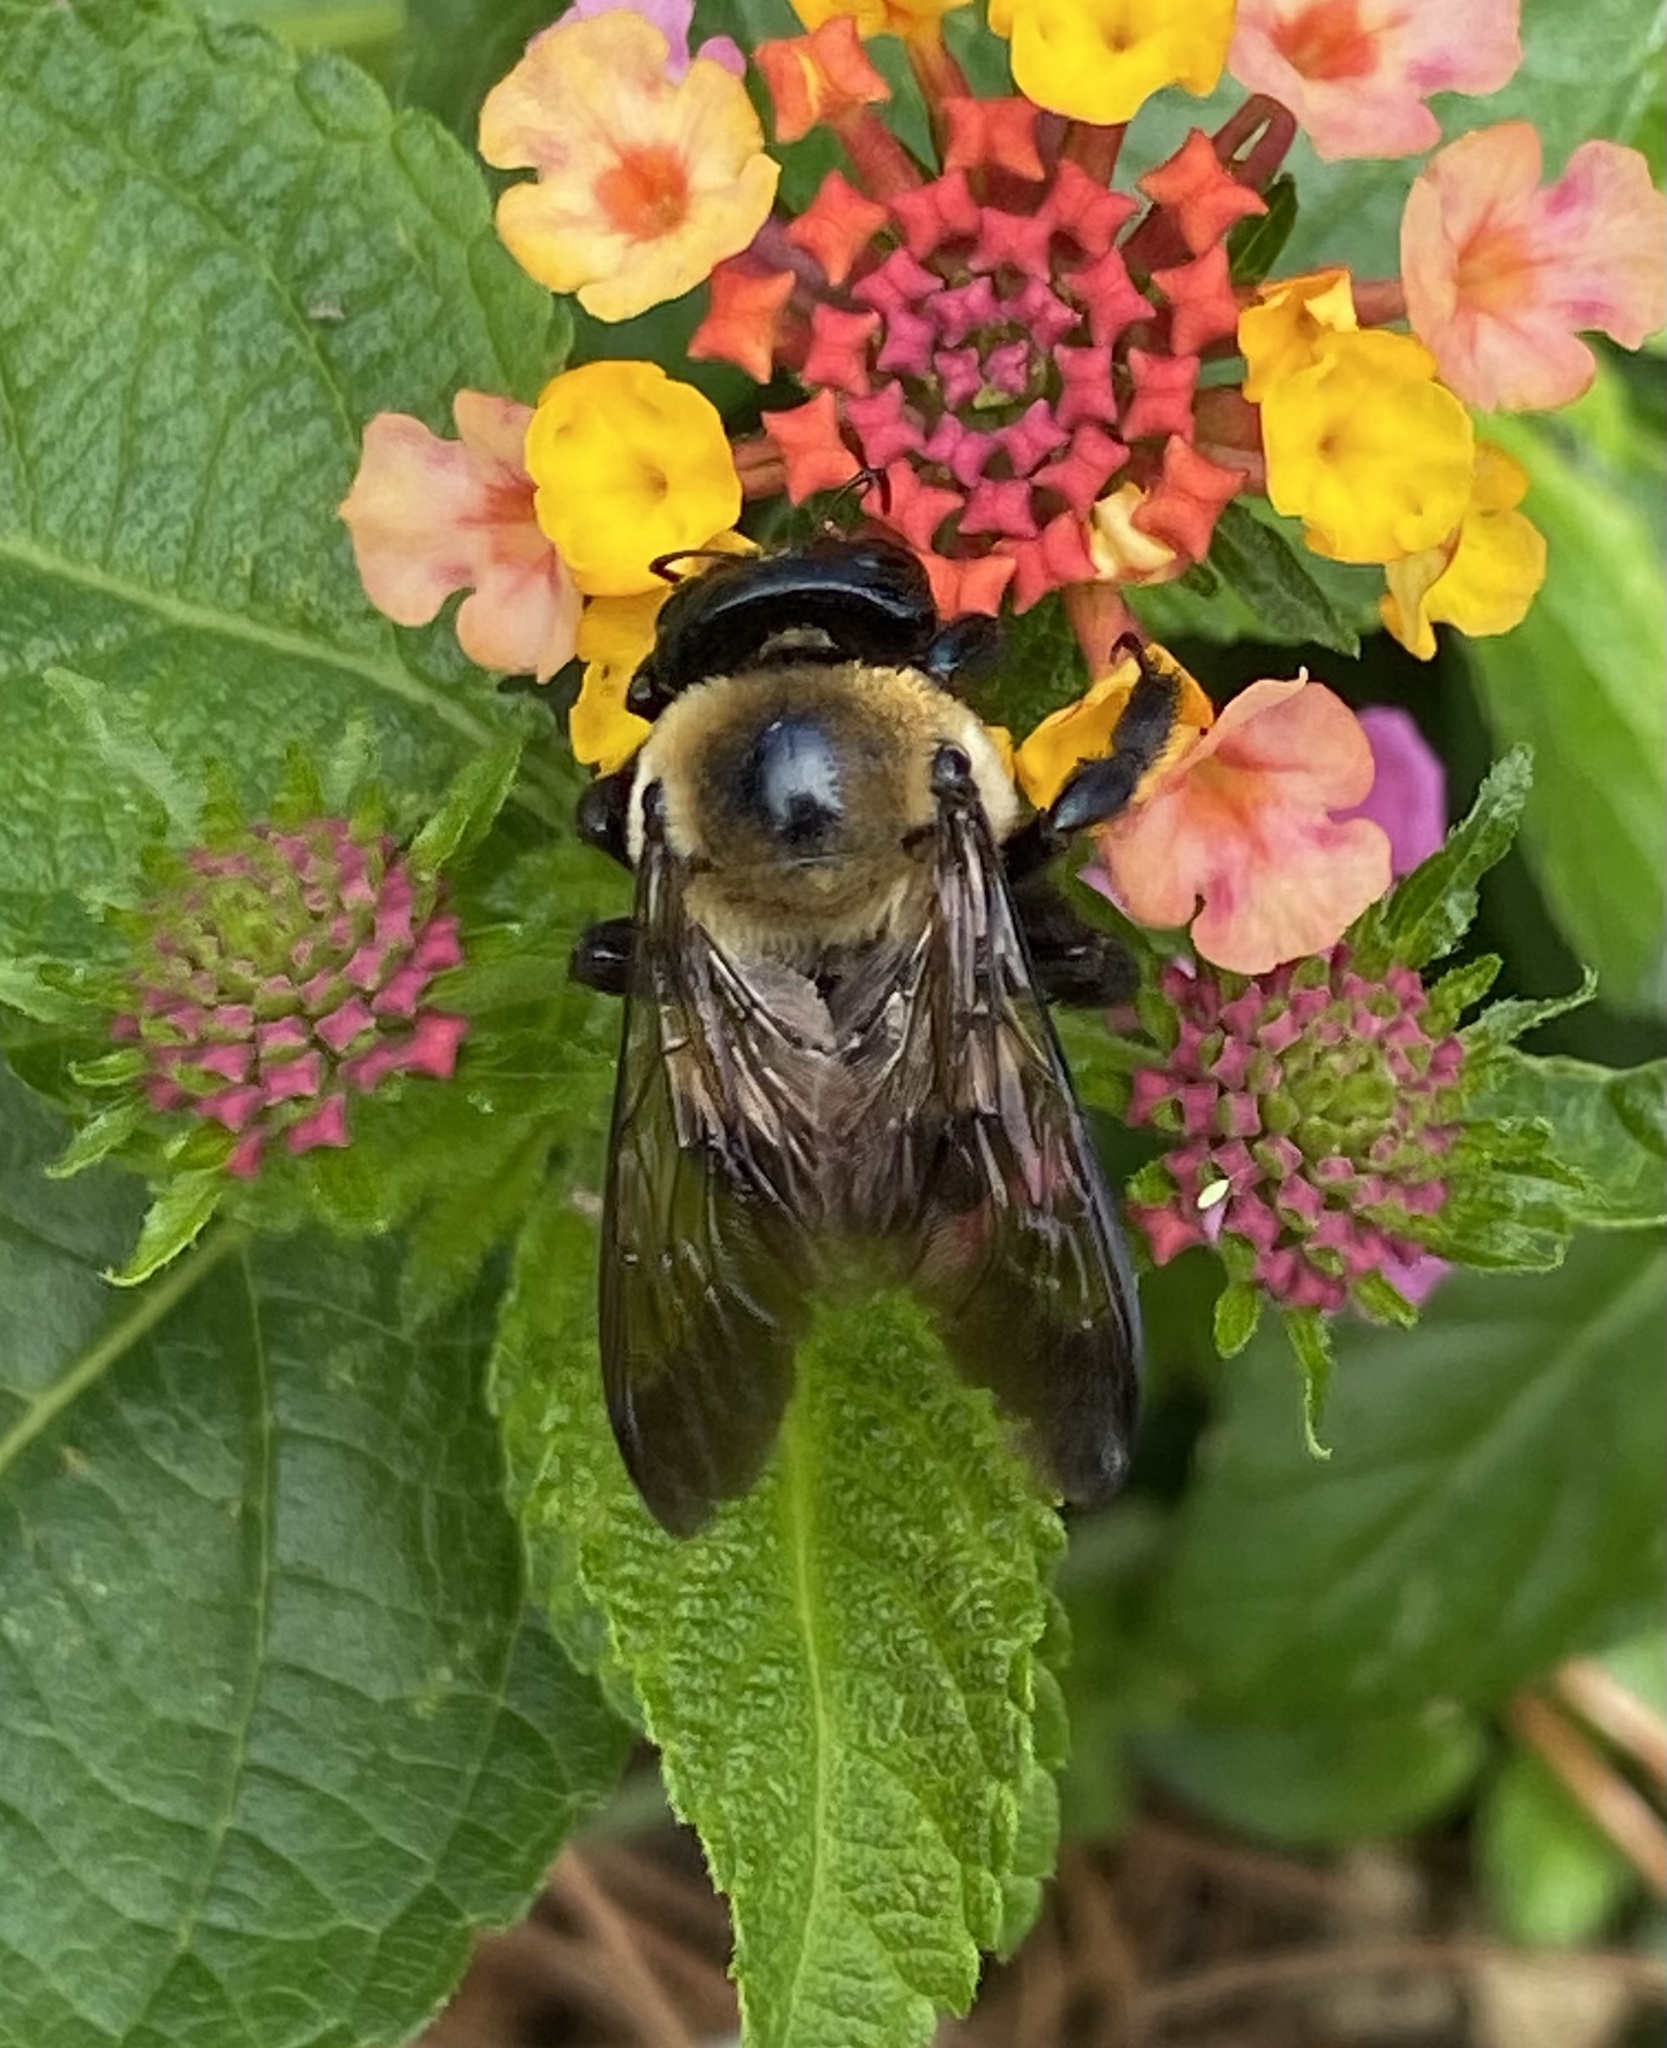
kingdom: Animalia
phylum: Arthropoda
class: Insecta
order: Hymenoptera
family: Apidae
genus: Xylocopa
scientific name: Xylocopa virginica
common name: Carpenter bee
